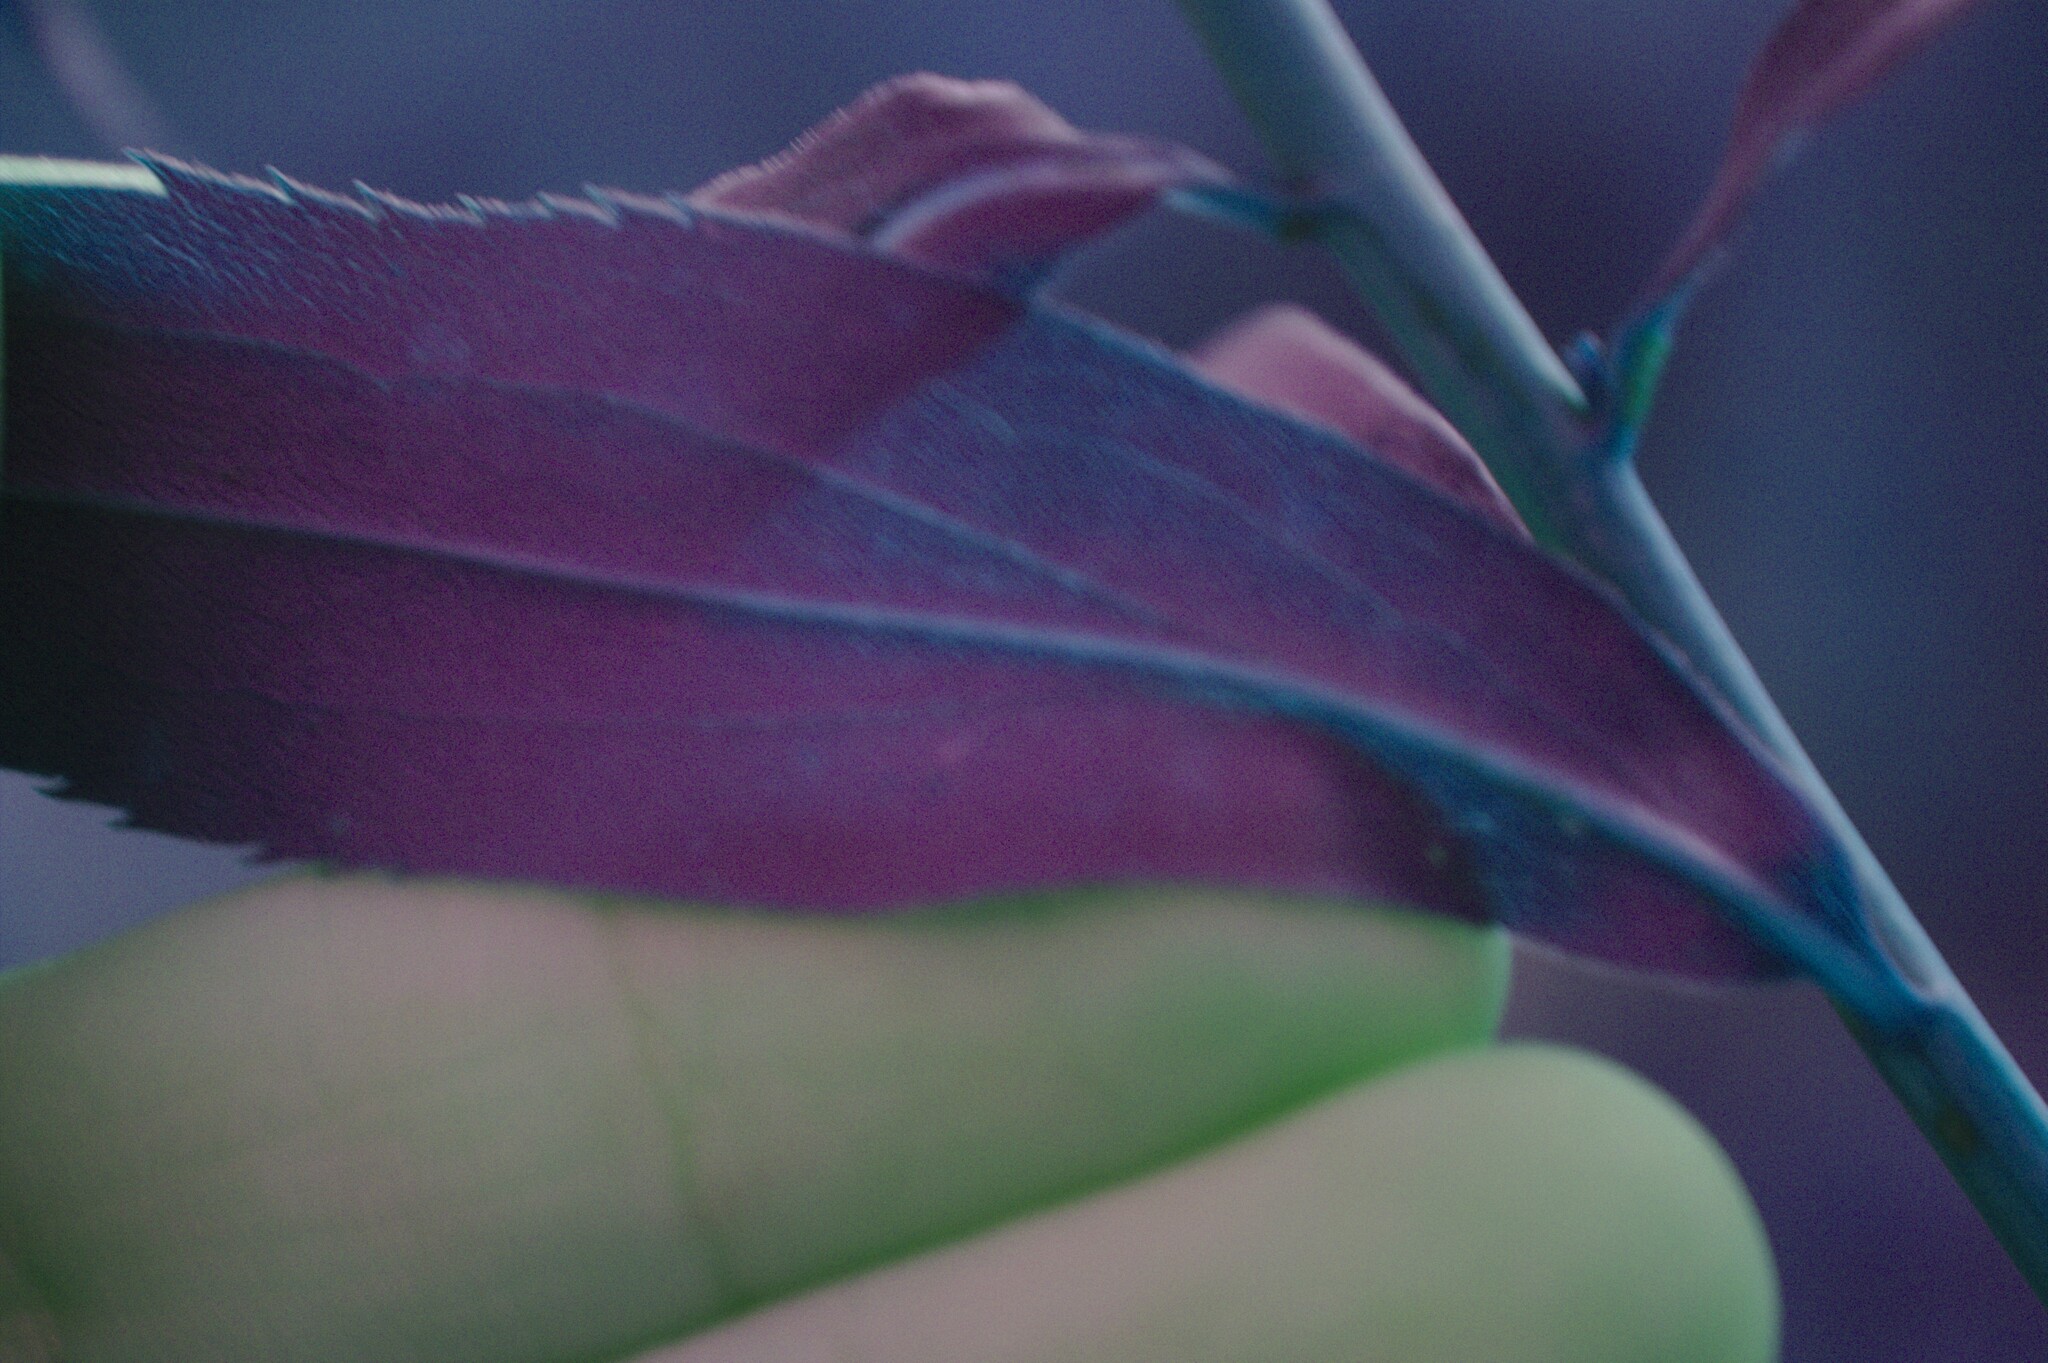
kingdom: Plantae
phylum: Tracheophyta
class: Magnoliopsida
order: Asterales
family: Asteraceae
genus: Solidago
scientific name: Solidago gigantea
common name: Giant goldenrod
